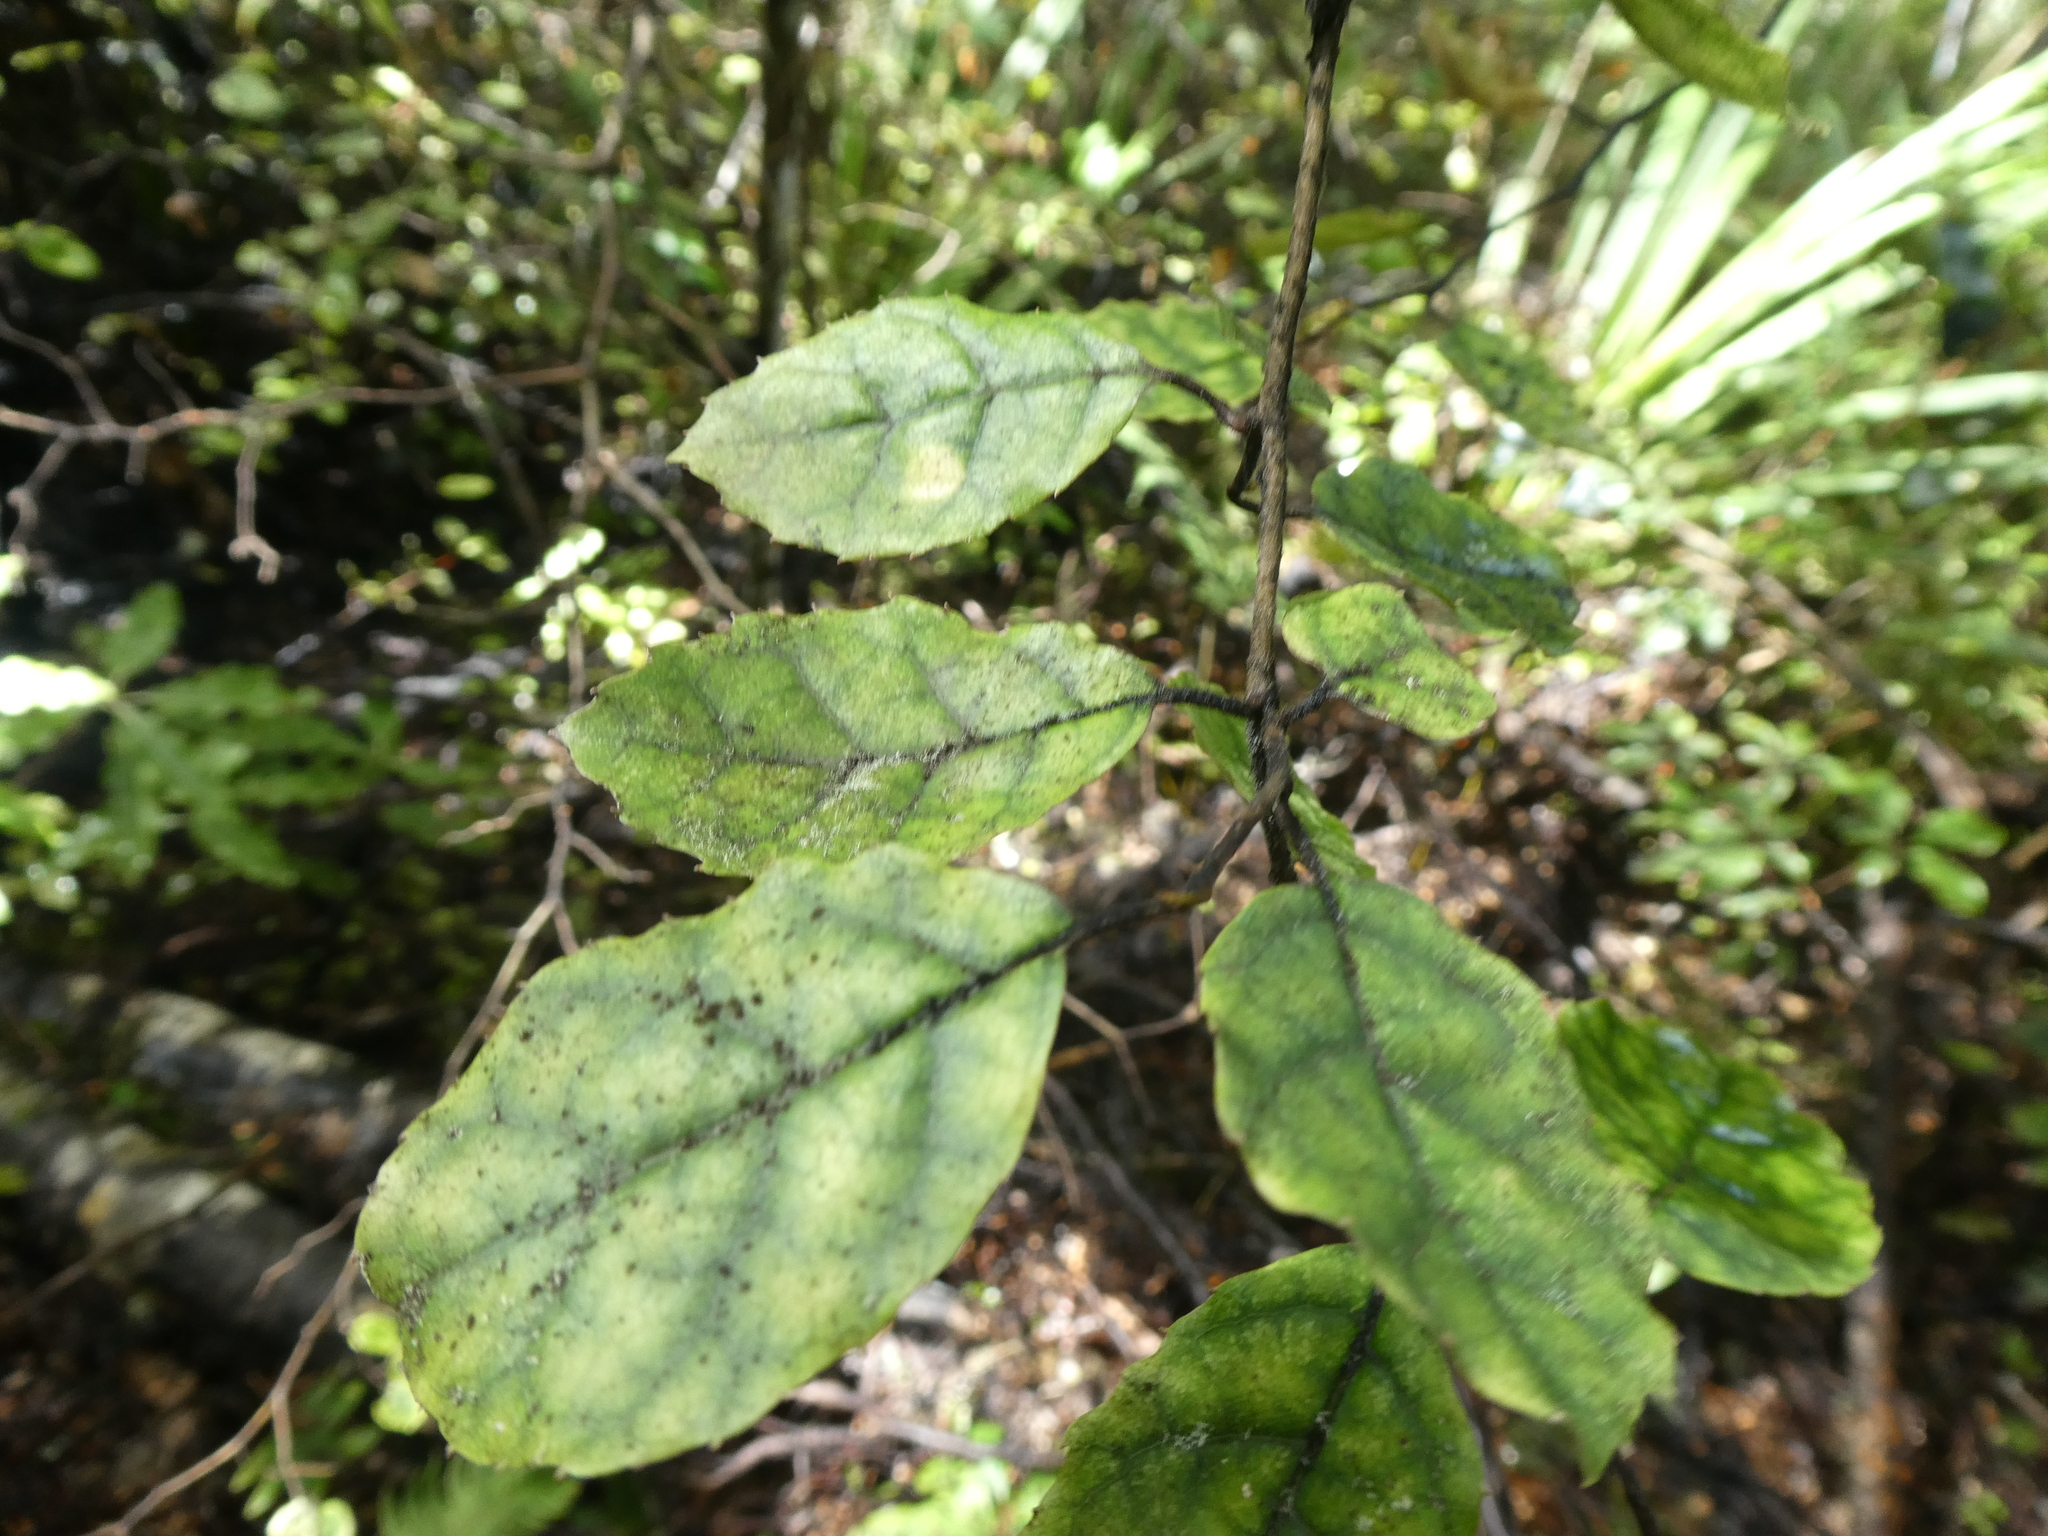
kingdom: Plantae
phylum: Tracheophyta
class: Magnoliopsida
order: Asterales
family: Rousseaceae
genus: Carpodetus
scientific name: Carpodetus serratus
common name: White mapau
